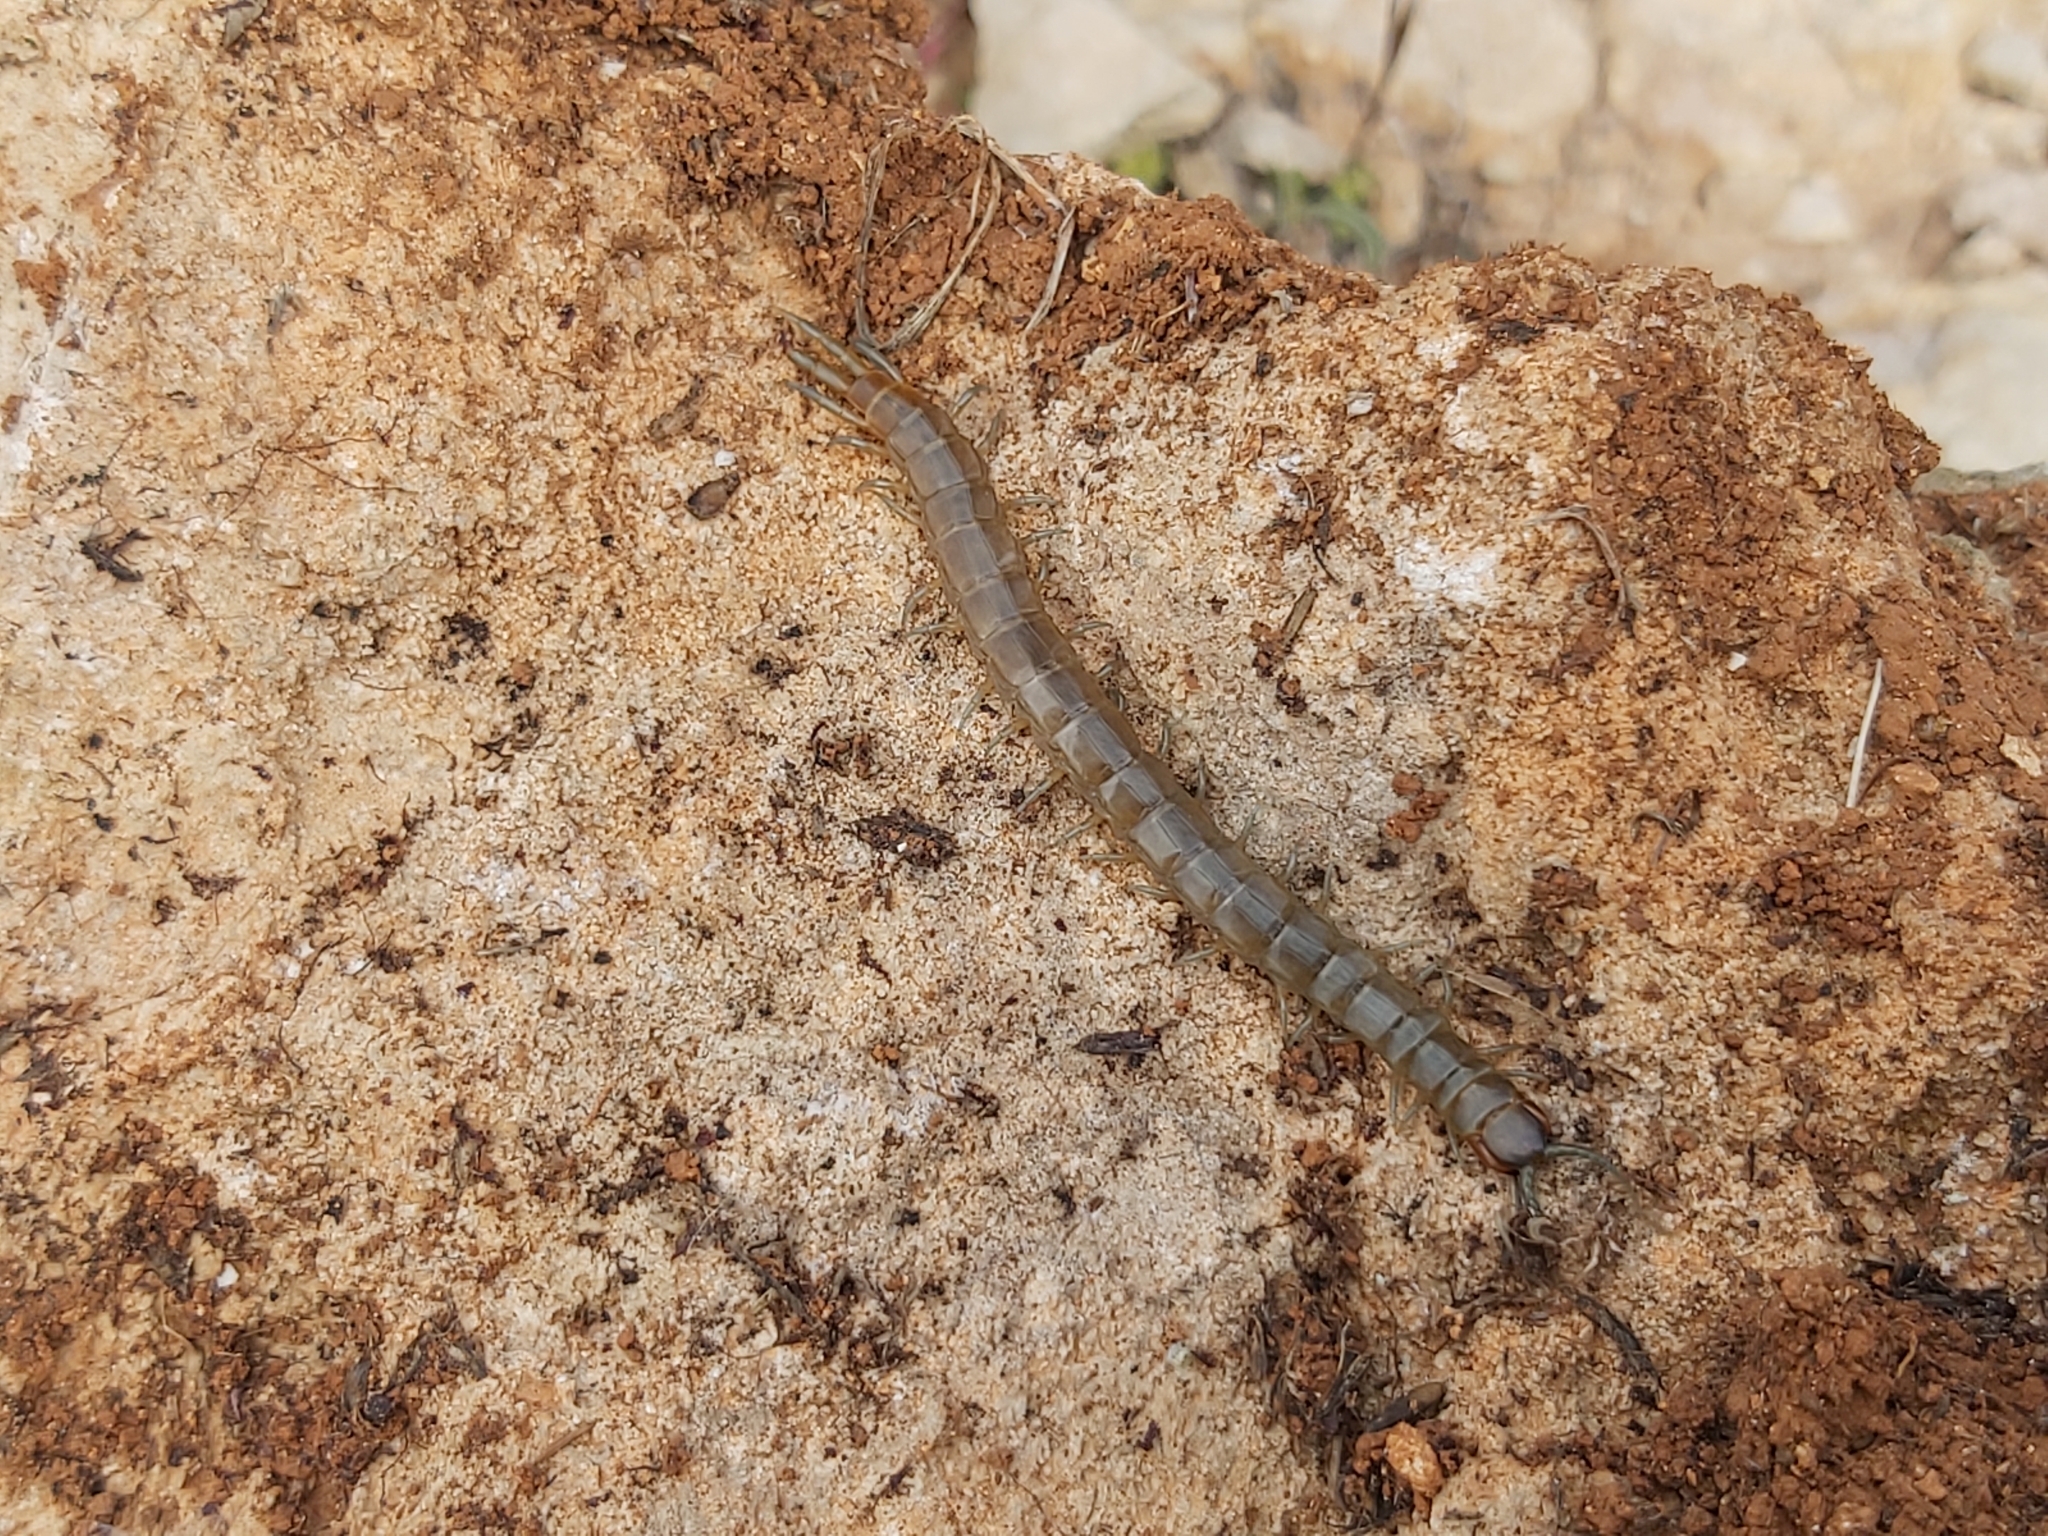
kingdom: Animalia
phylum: Arthropoda
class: Chilopoda
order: Scolopendromorpha
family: Scolopendridae
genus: Scolopendra
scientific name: Scolopendra oraniensis
